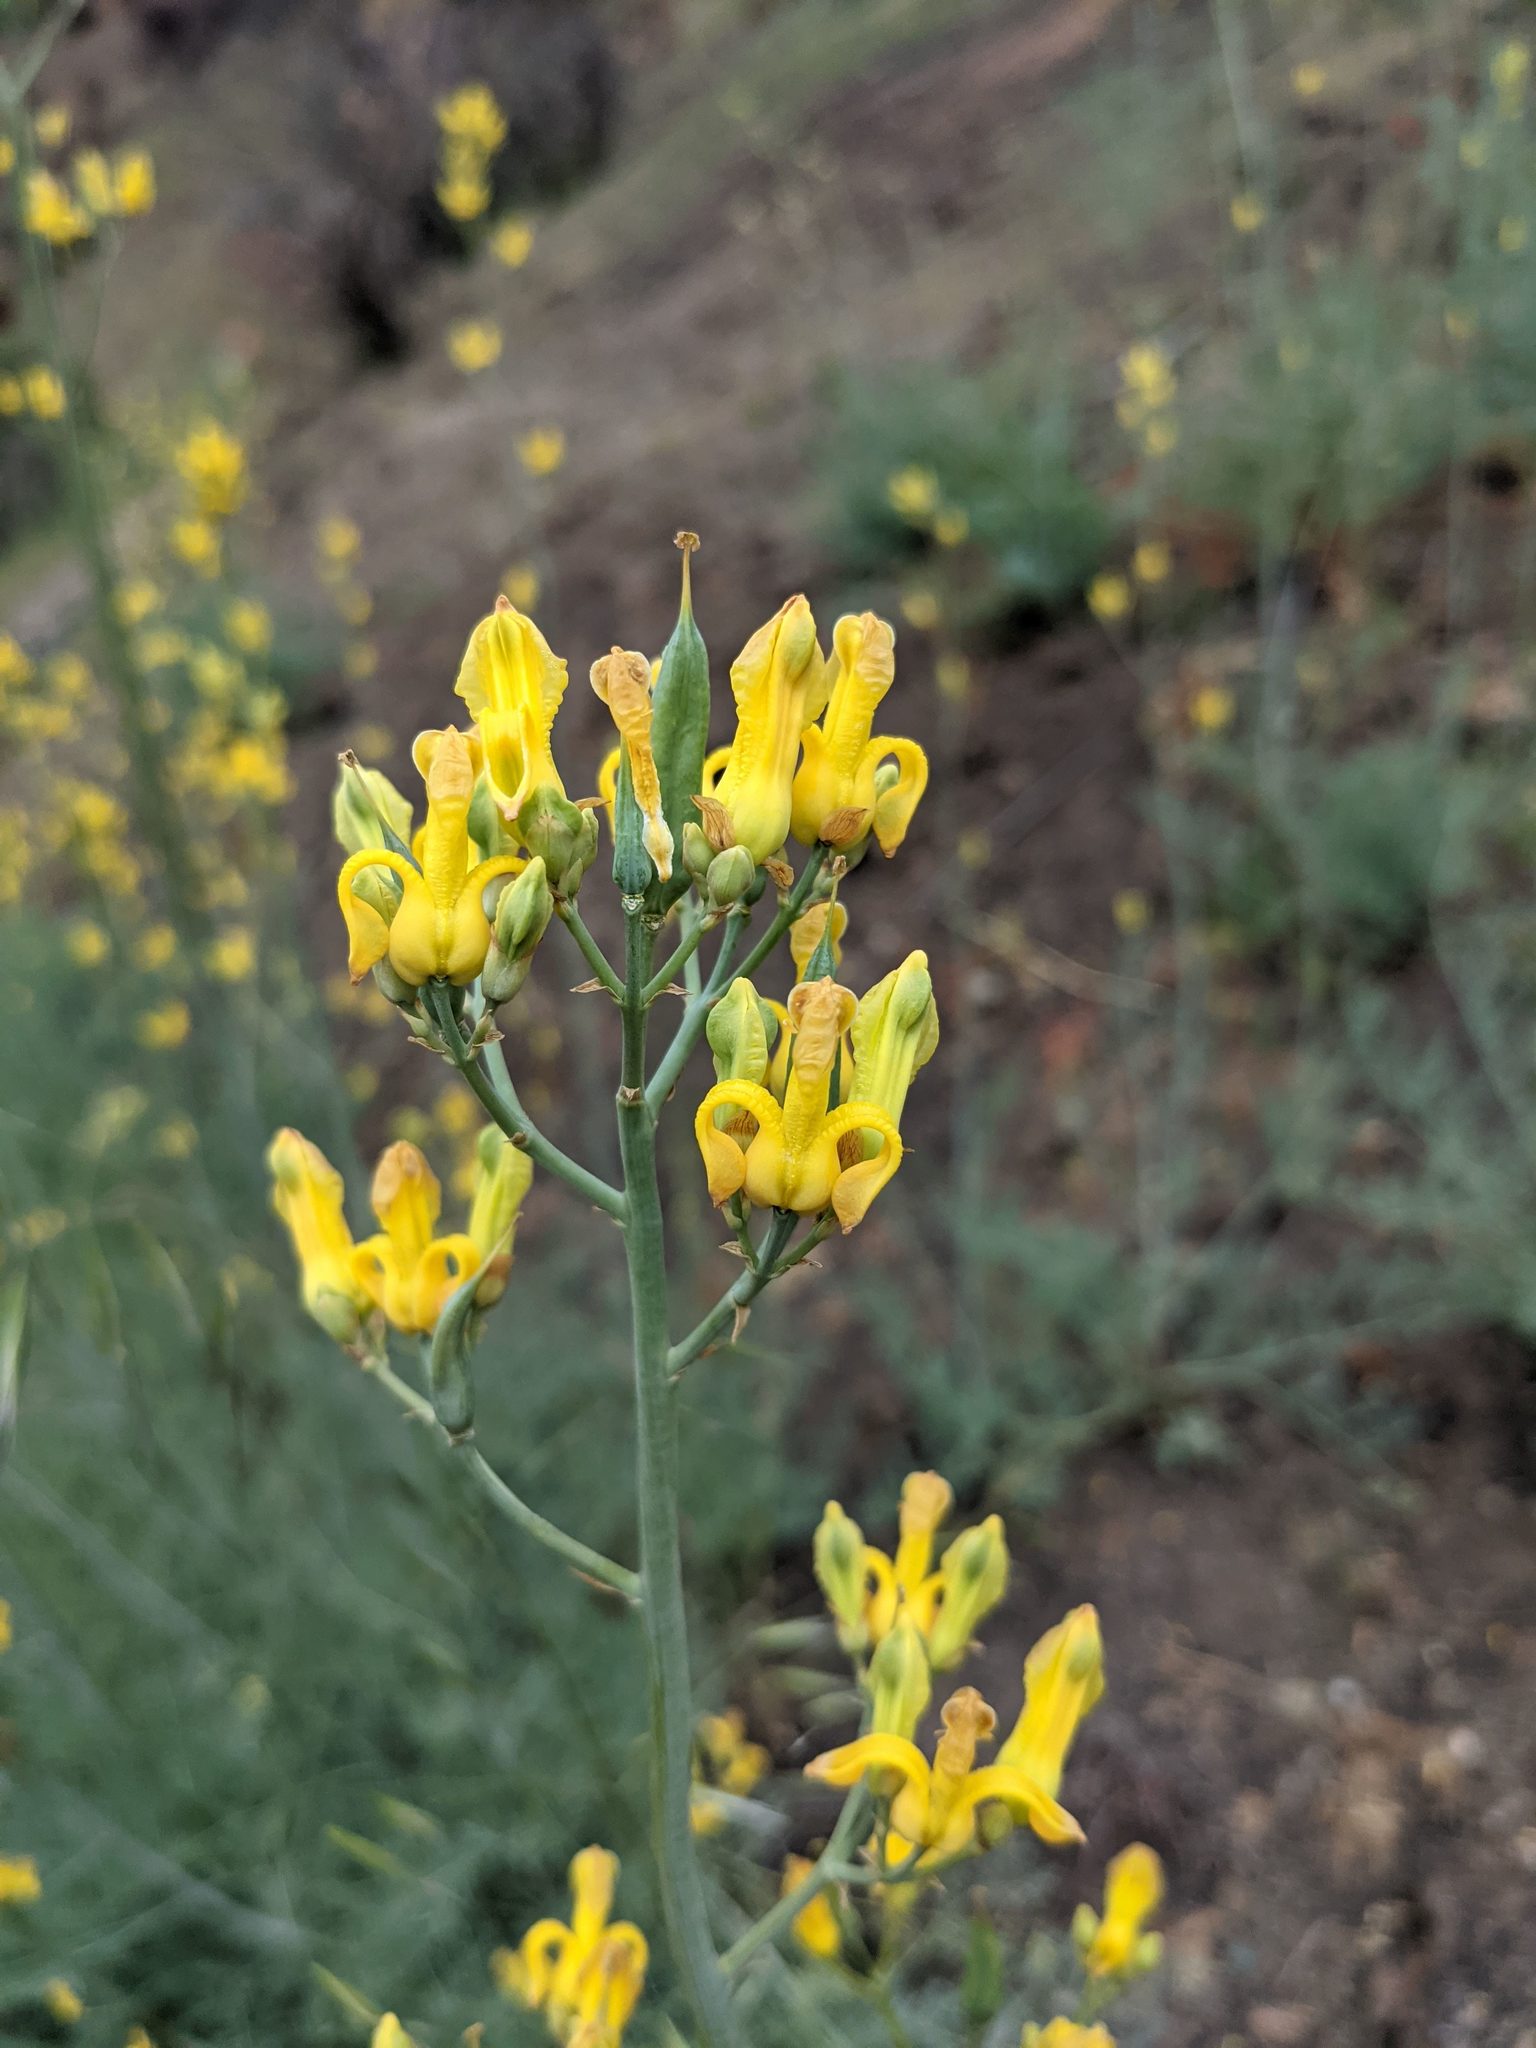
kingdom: Plantae
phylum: Tracheophyta
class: Magnoliopsida
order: Ranunculales
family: Papaveraceae
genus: Ehrendorferia
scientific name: Ehrendorferia chrysantha
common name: Golden eardrops
